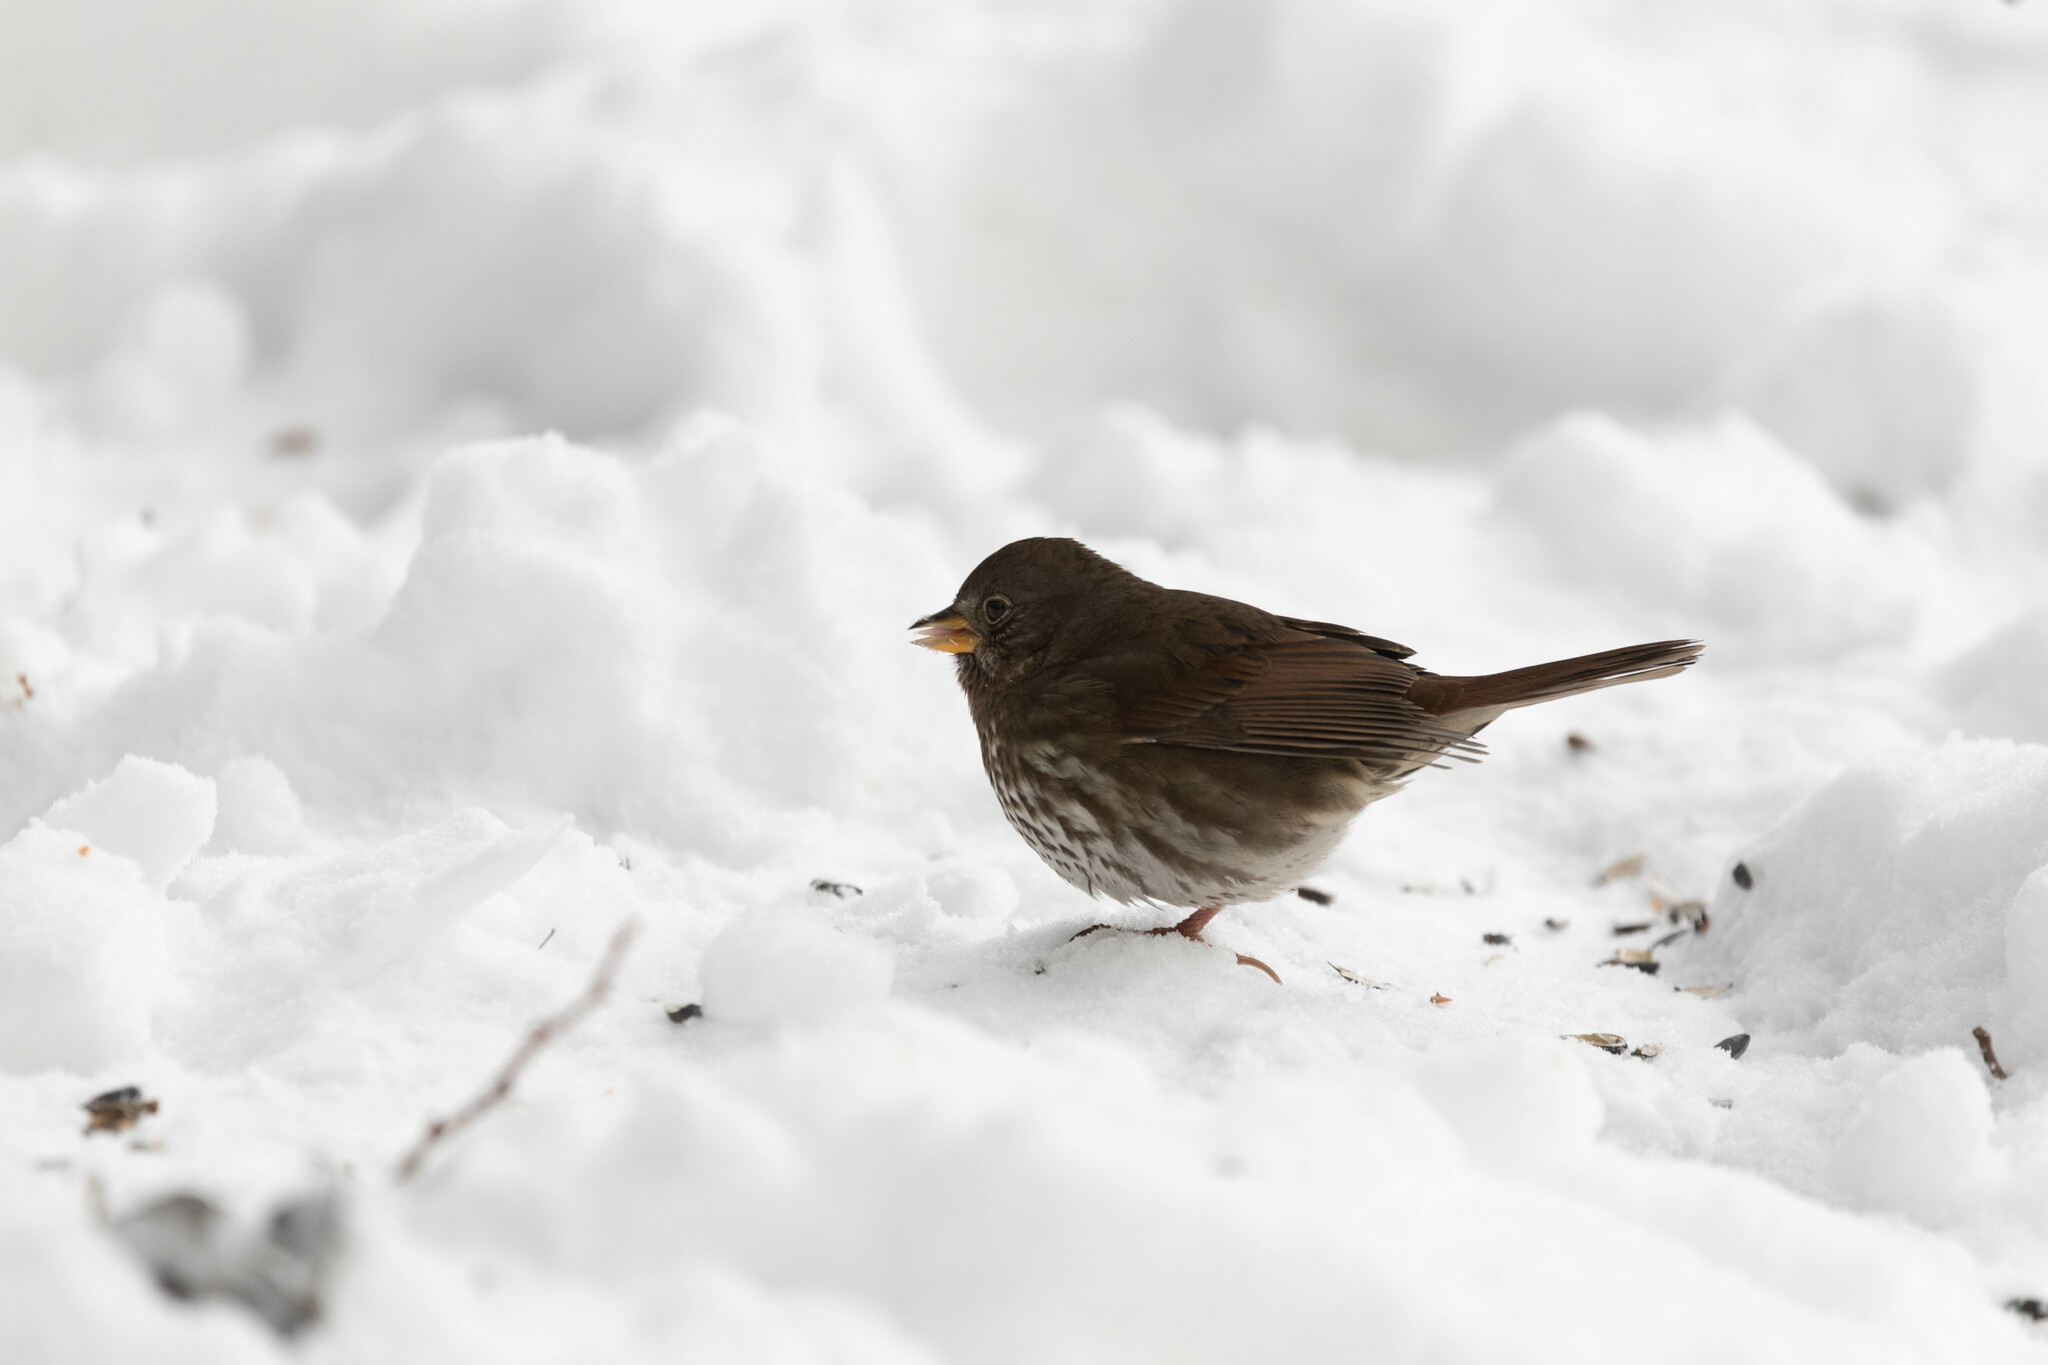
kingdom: Animalia
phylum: Chordata
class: Aves
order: Passeriformes
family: Passerellidae
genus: Passerella
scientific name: Passerella iliaca
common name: Fox sparrow
